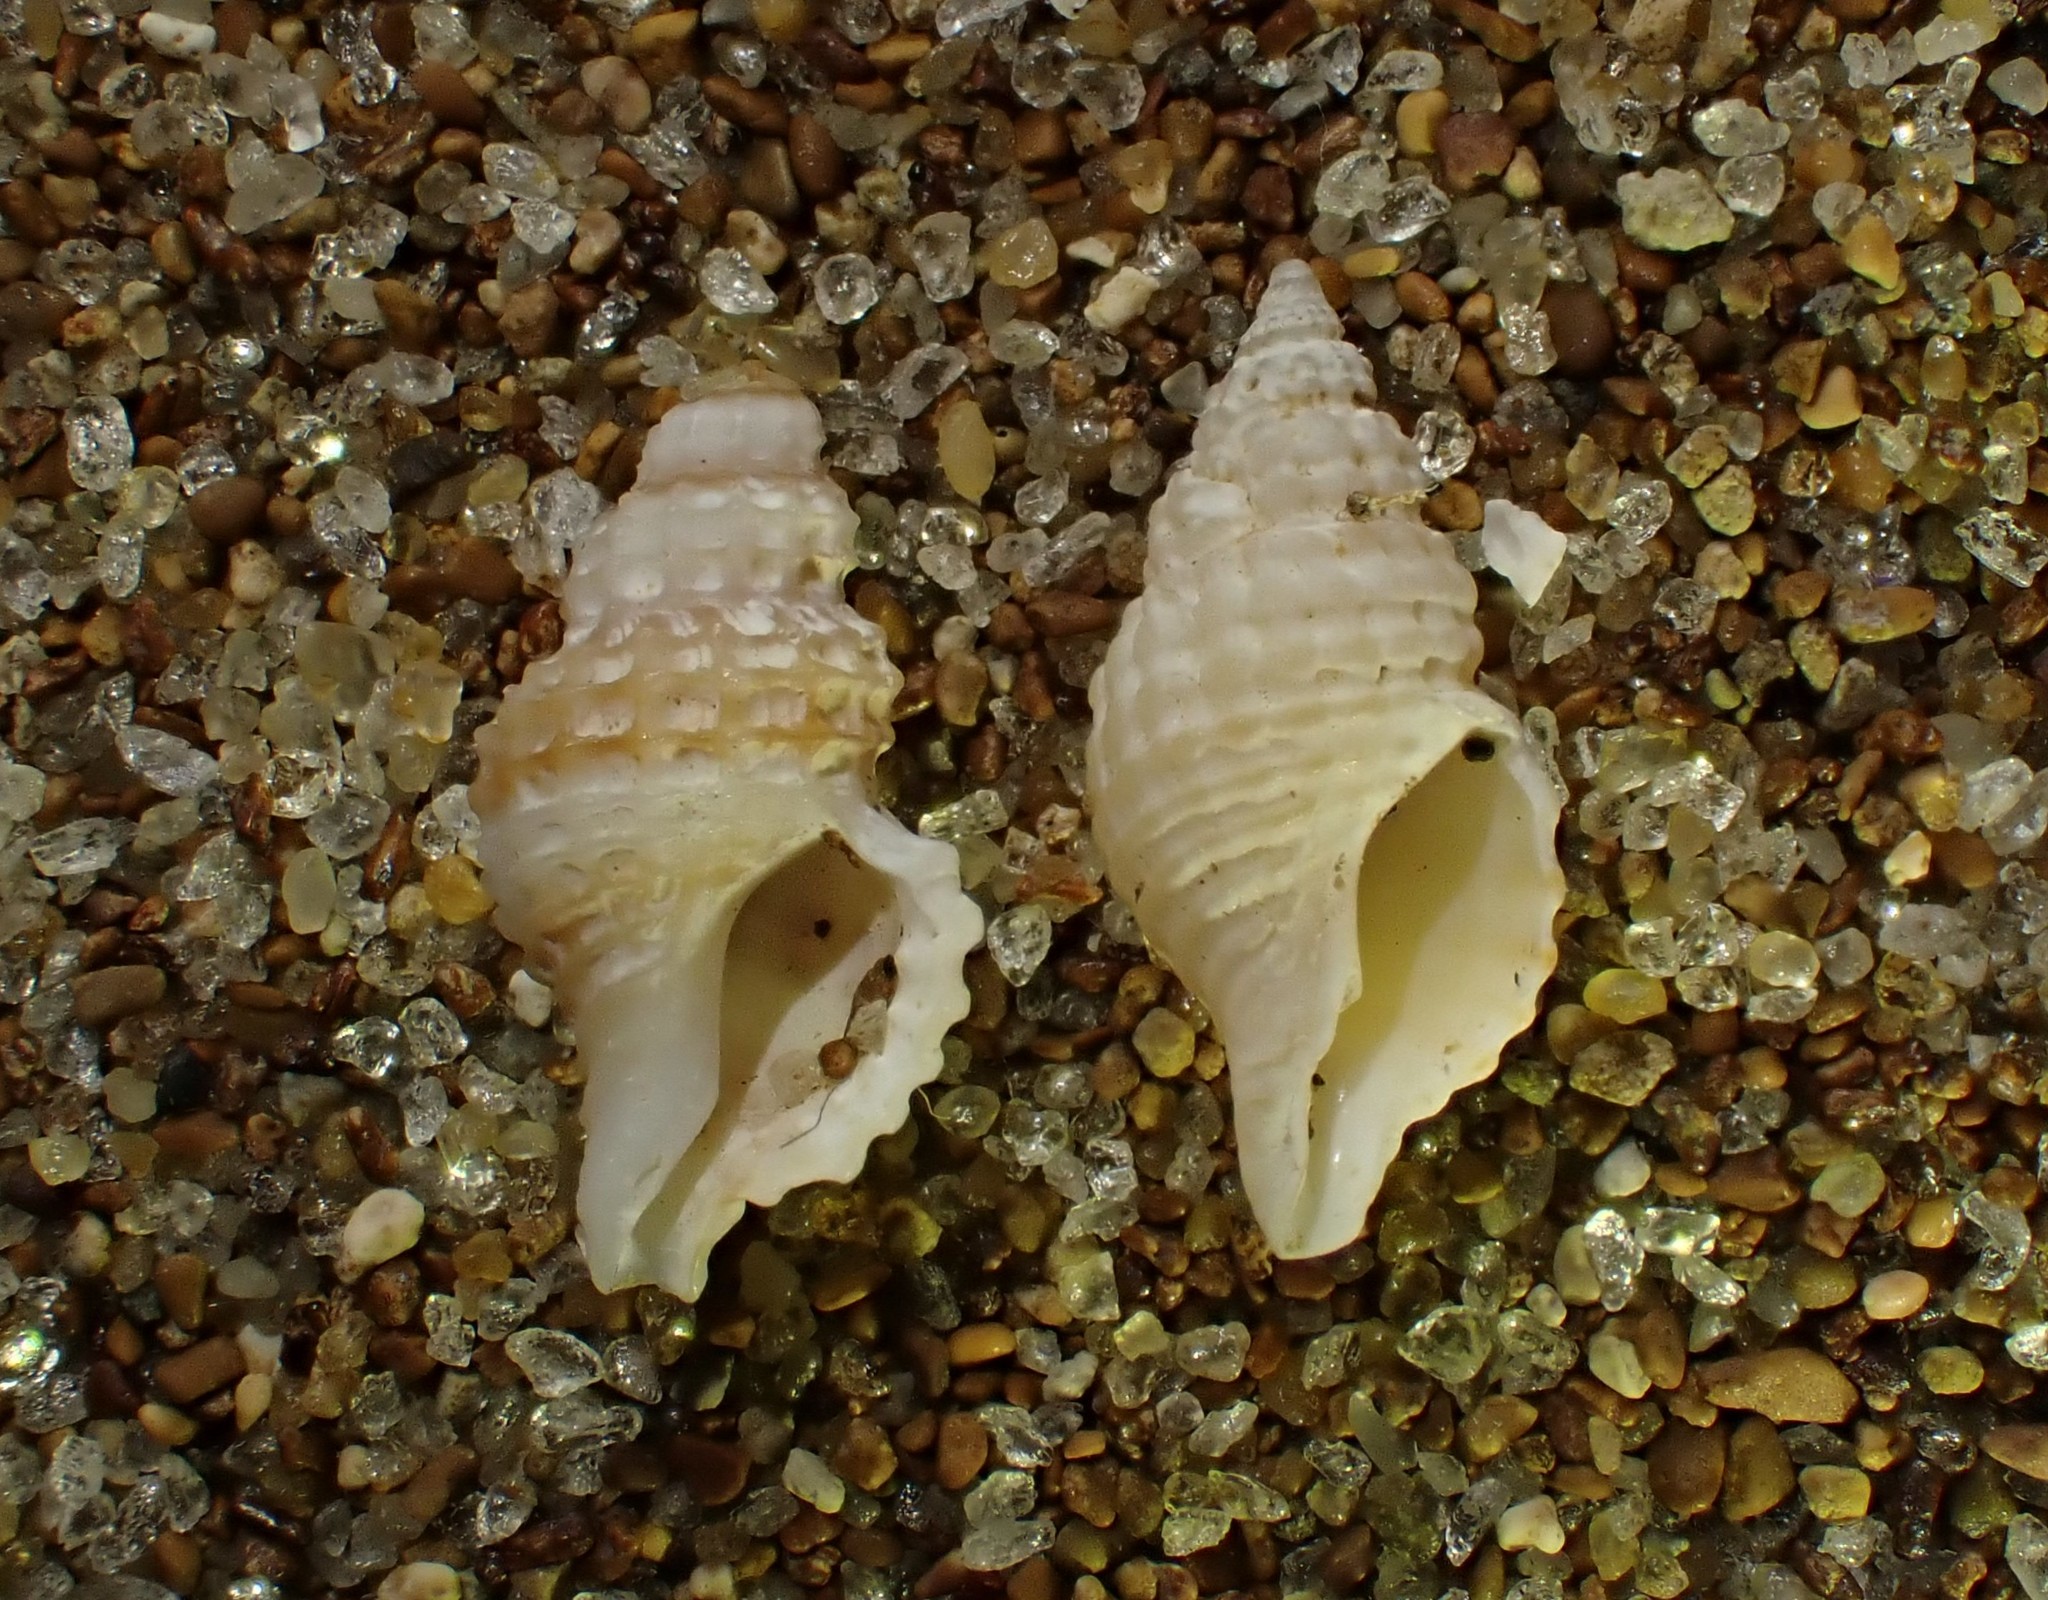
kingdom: Animalia
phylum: Mollusca
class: Gastropoda
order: Neogastropoda
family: Muricidae
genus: Xymenella
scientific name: Xymenella pusilla
